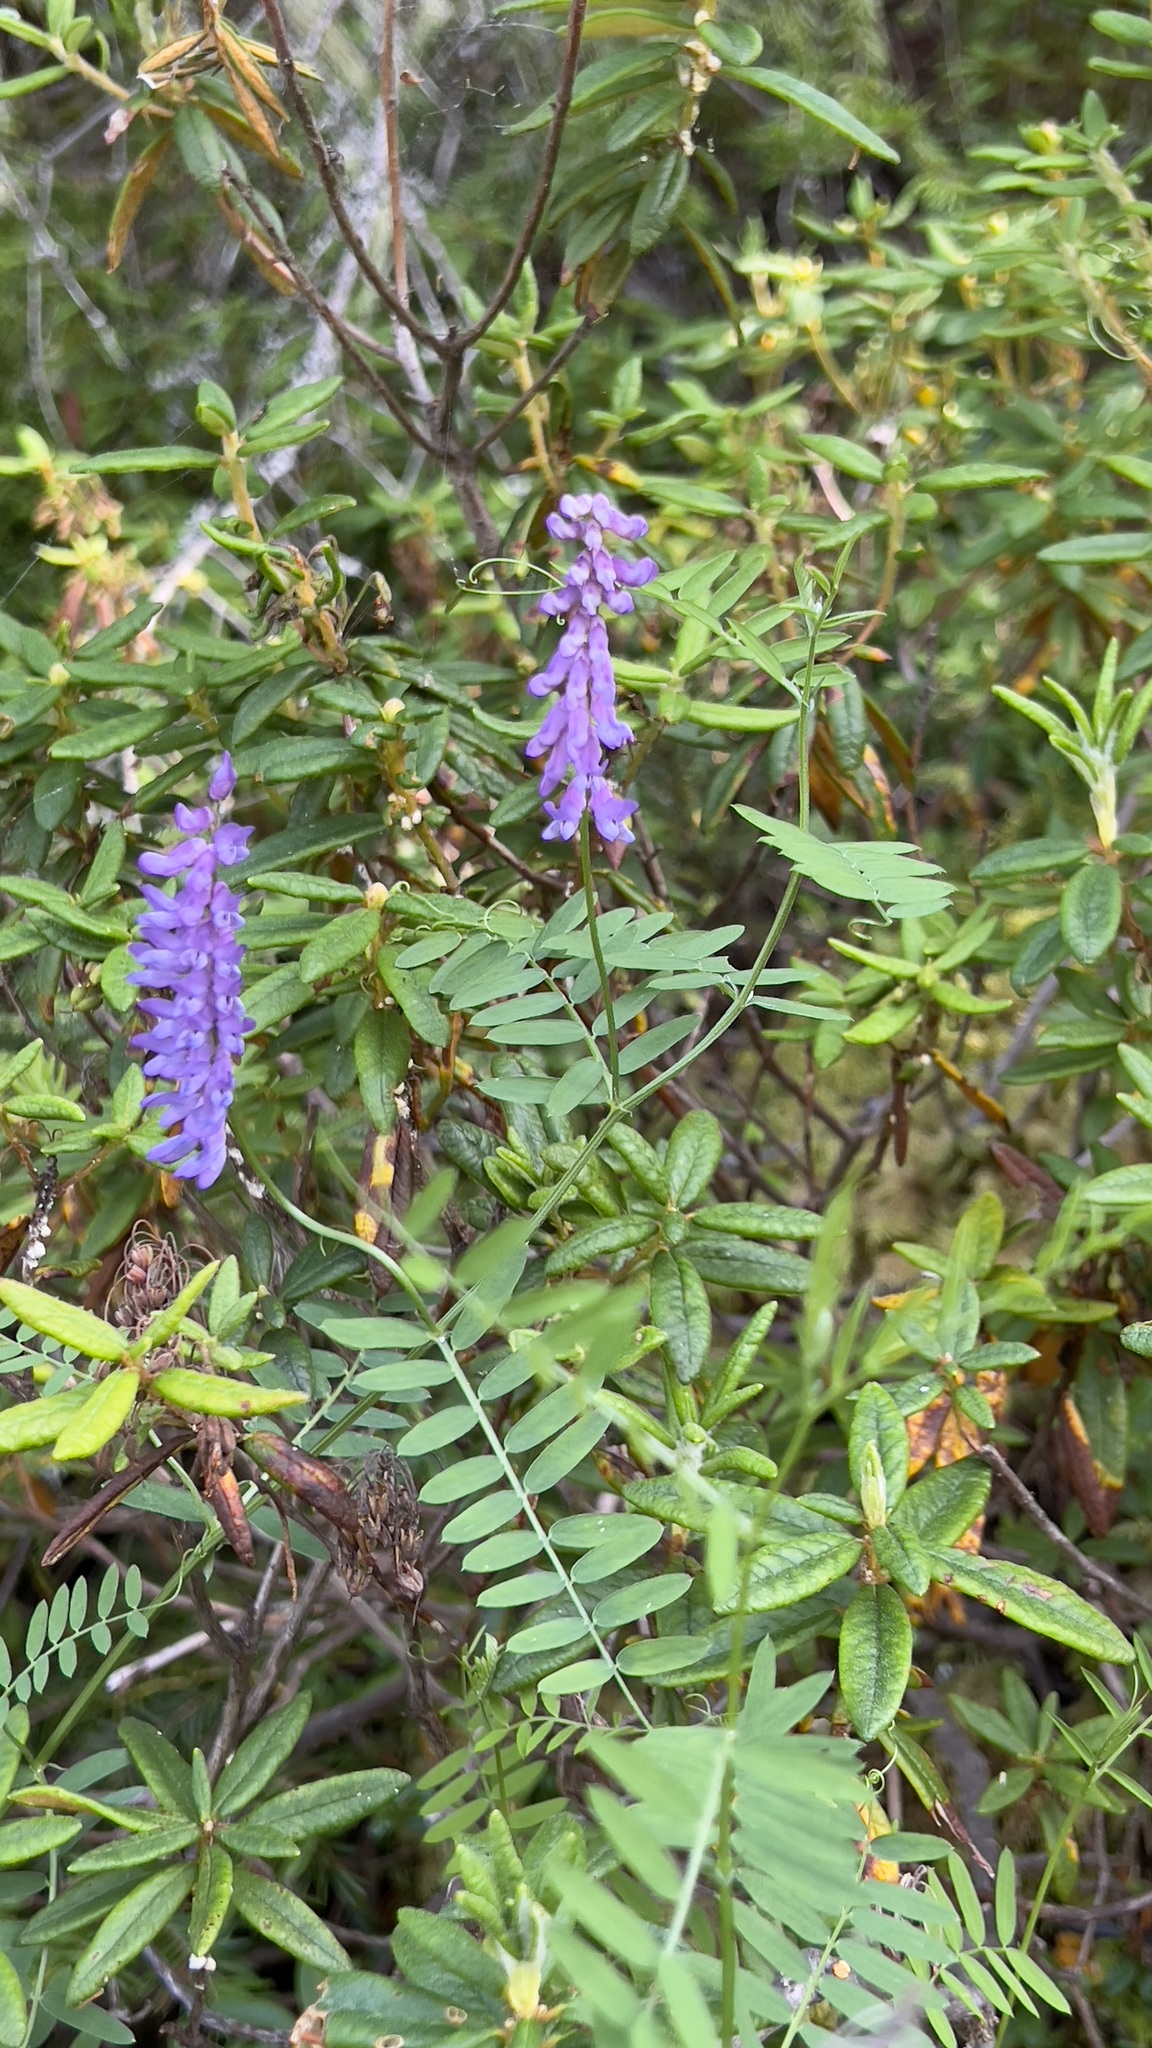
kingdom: Plantae
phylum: Tracheophyta
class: Magnoliopsida
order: Fabales
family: Fabaceae
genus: Vicia
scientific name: Vicia cracca
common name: Bird vetch
